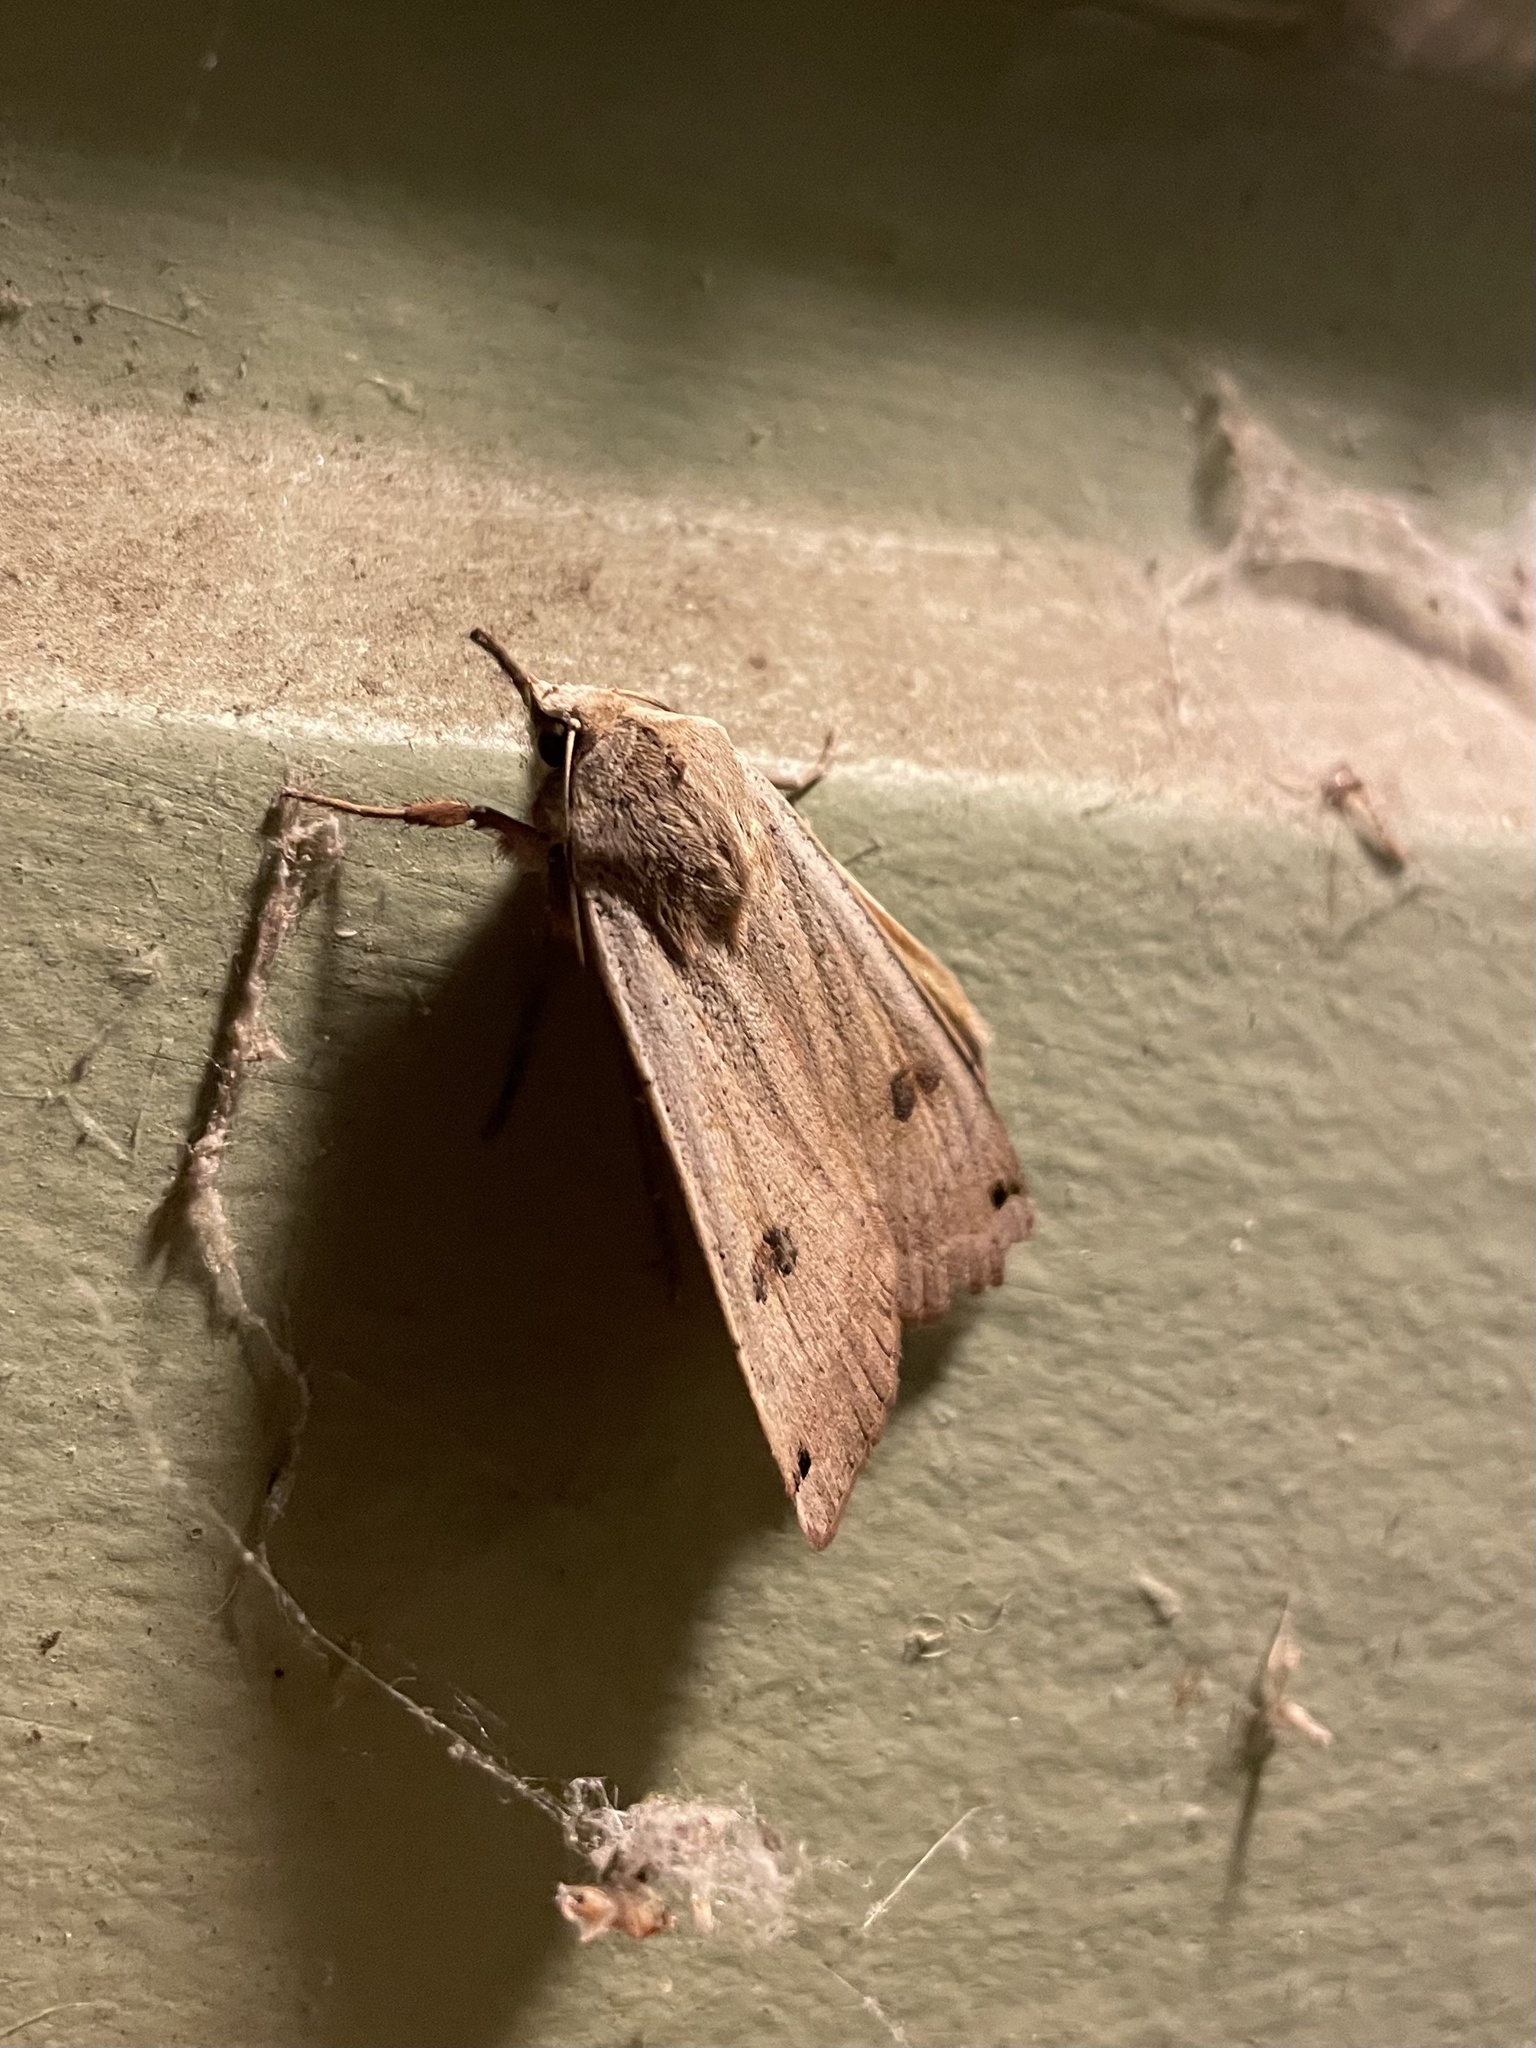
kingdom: Animalia
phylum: Arthropoda
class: Insecta
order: Lepidoptera
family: Noctuidae
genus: Noctua
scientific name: Noctua pronuba
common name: Large yellow underwing
